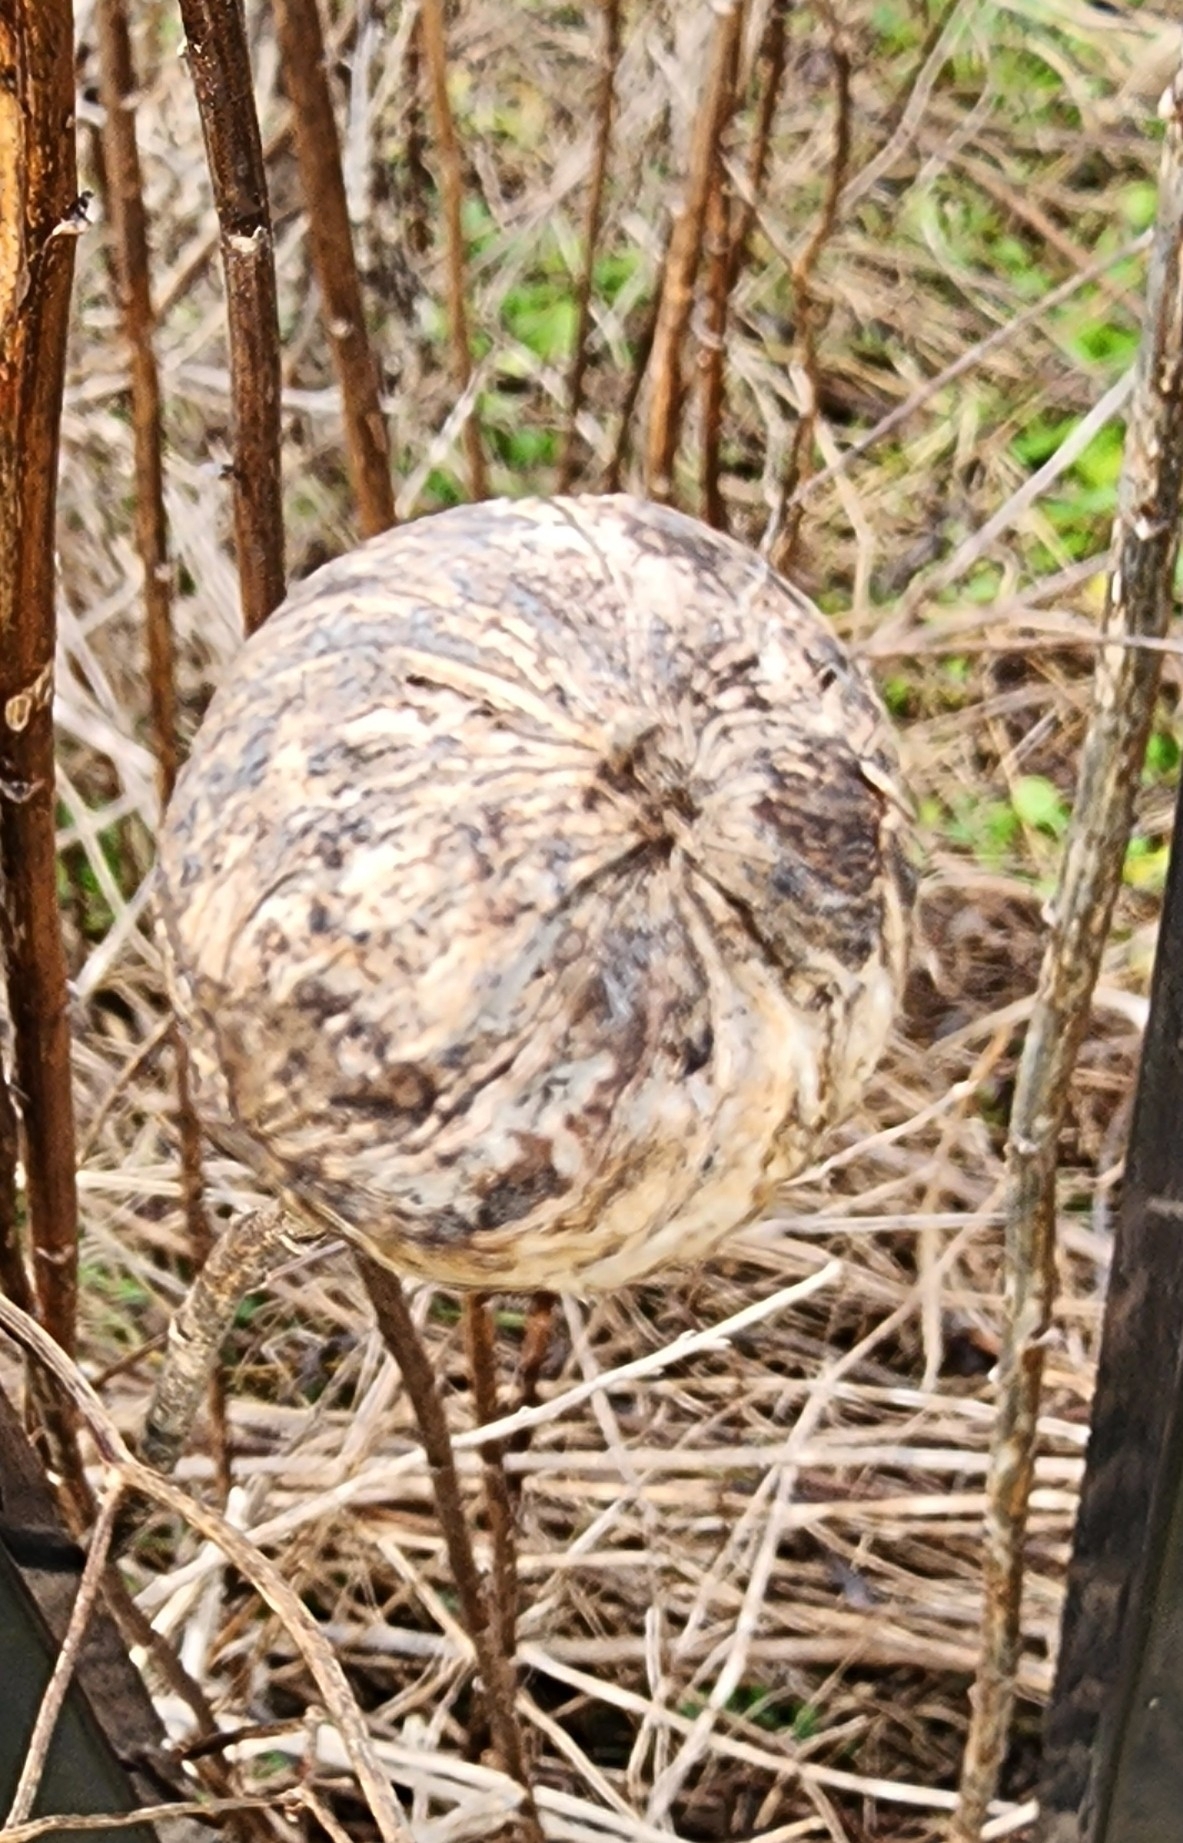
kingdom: Animalia
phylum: Arthropoda
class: Insecta
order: Diptera
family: Tephritidae
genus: Eurosta
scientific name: Eurosta solidaginis
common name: Goldenrod gall fly
